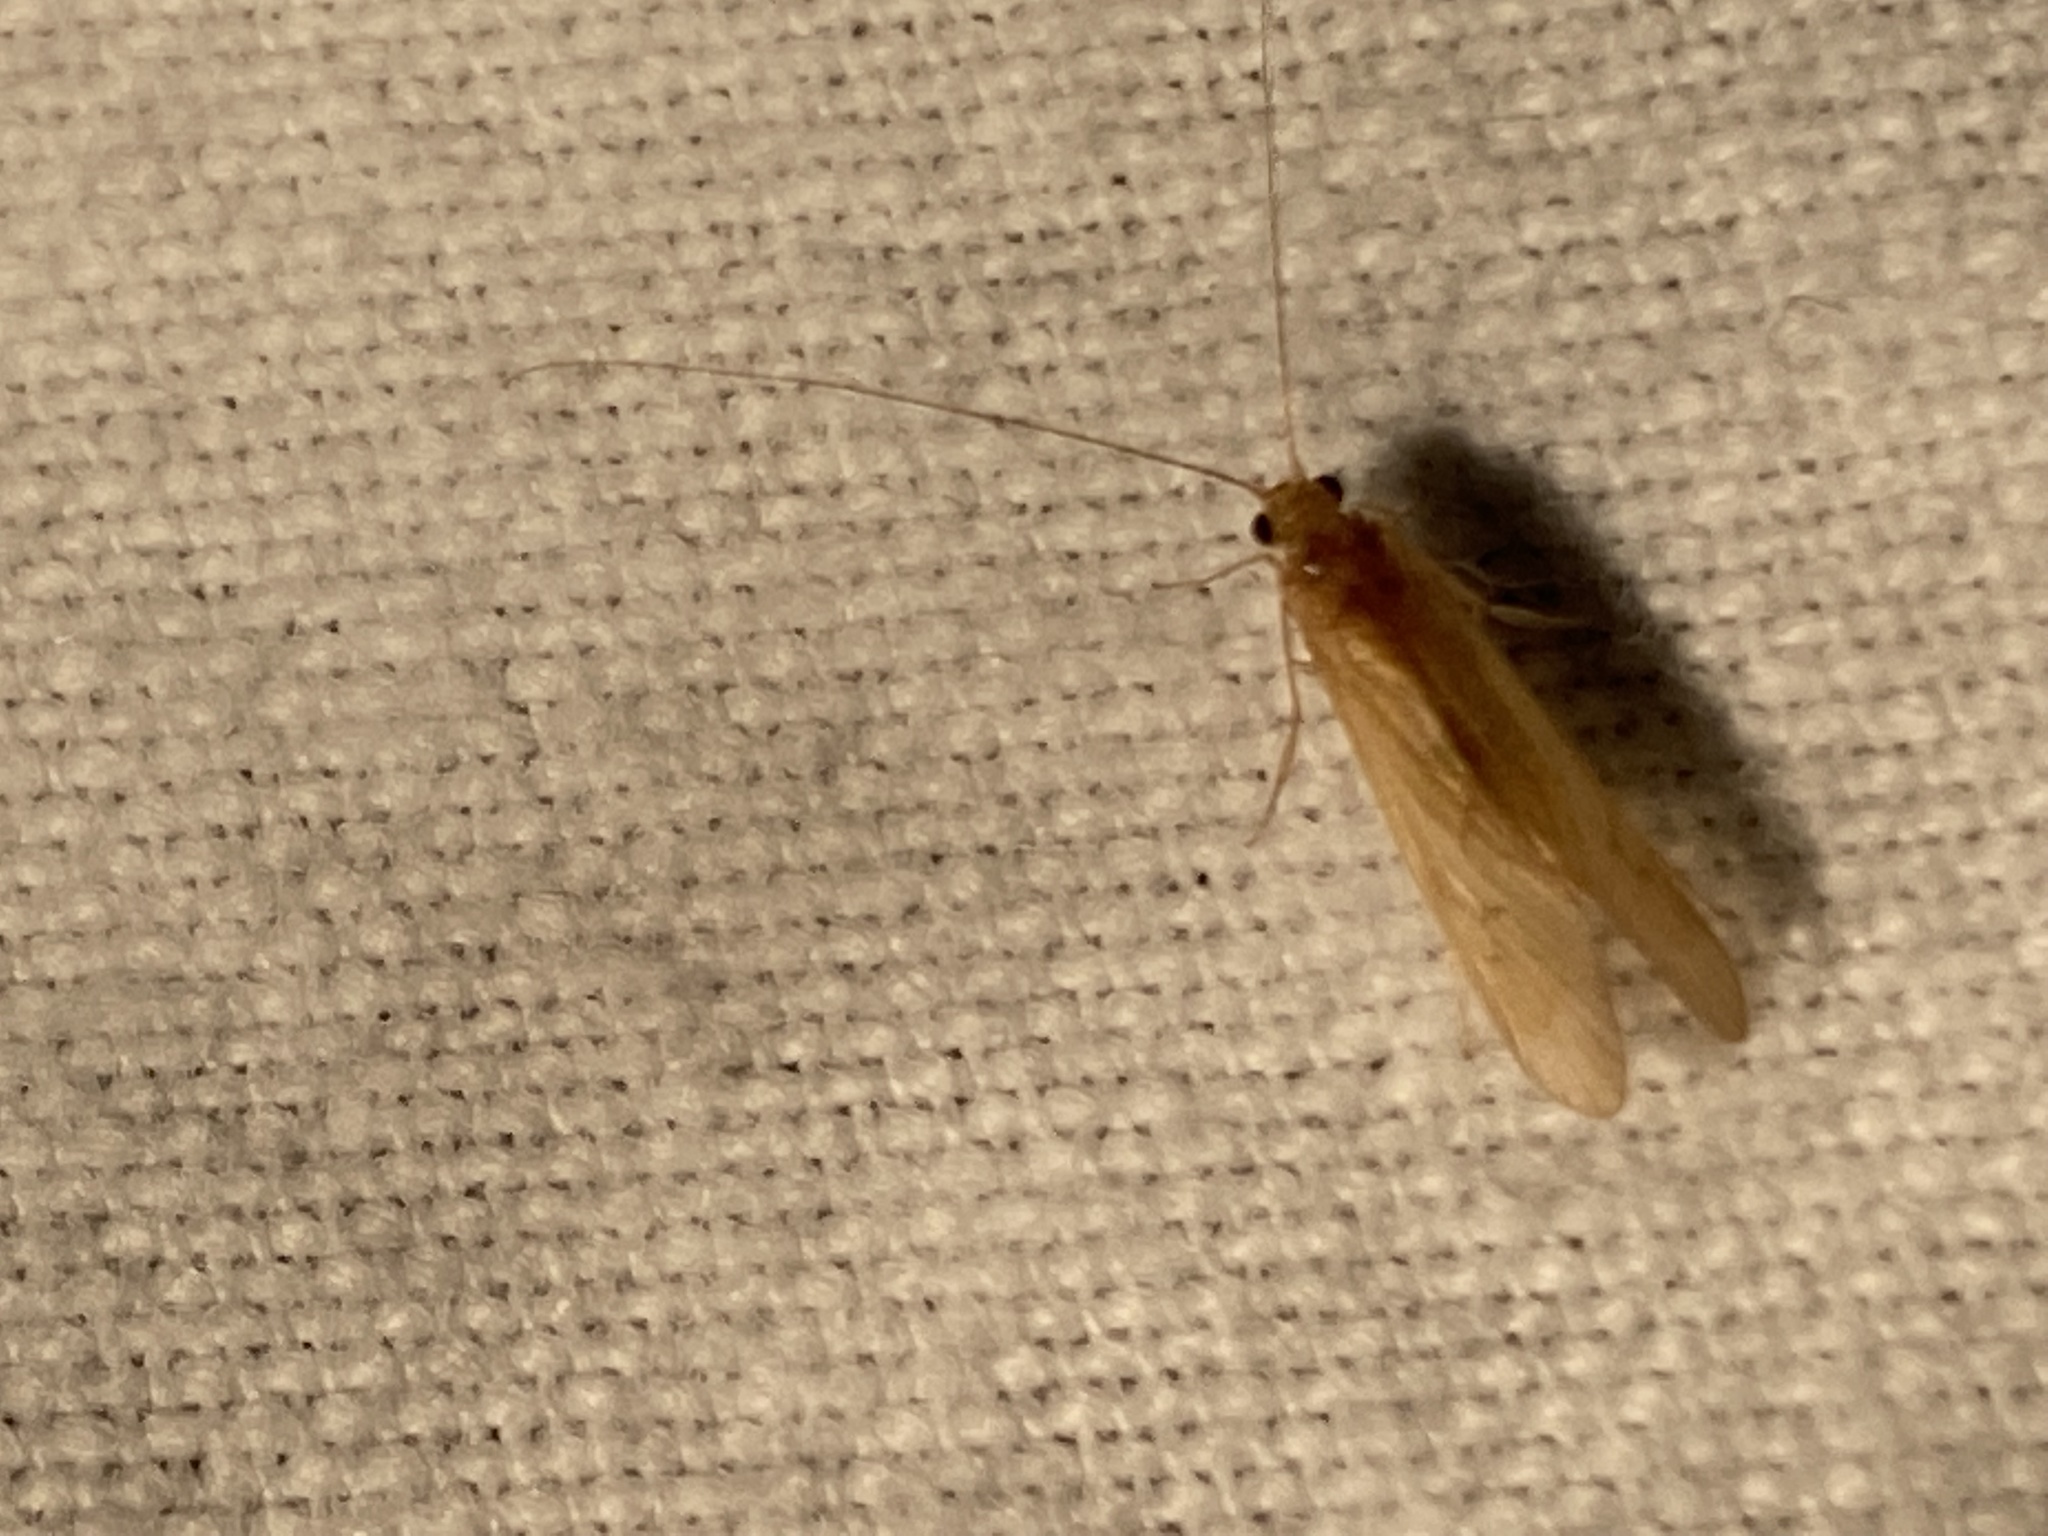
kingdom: Animalia
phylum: Arthropoda
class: Insecta
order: Trichoptera
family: Hydropsychidae
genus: Potamyia
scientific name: Potamyia flava
